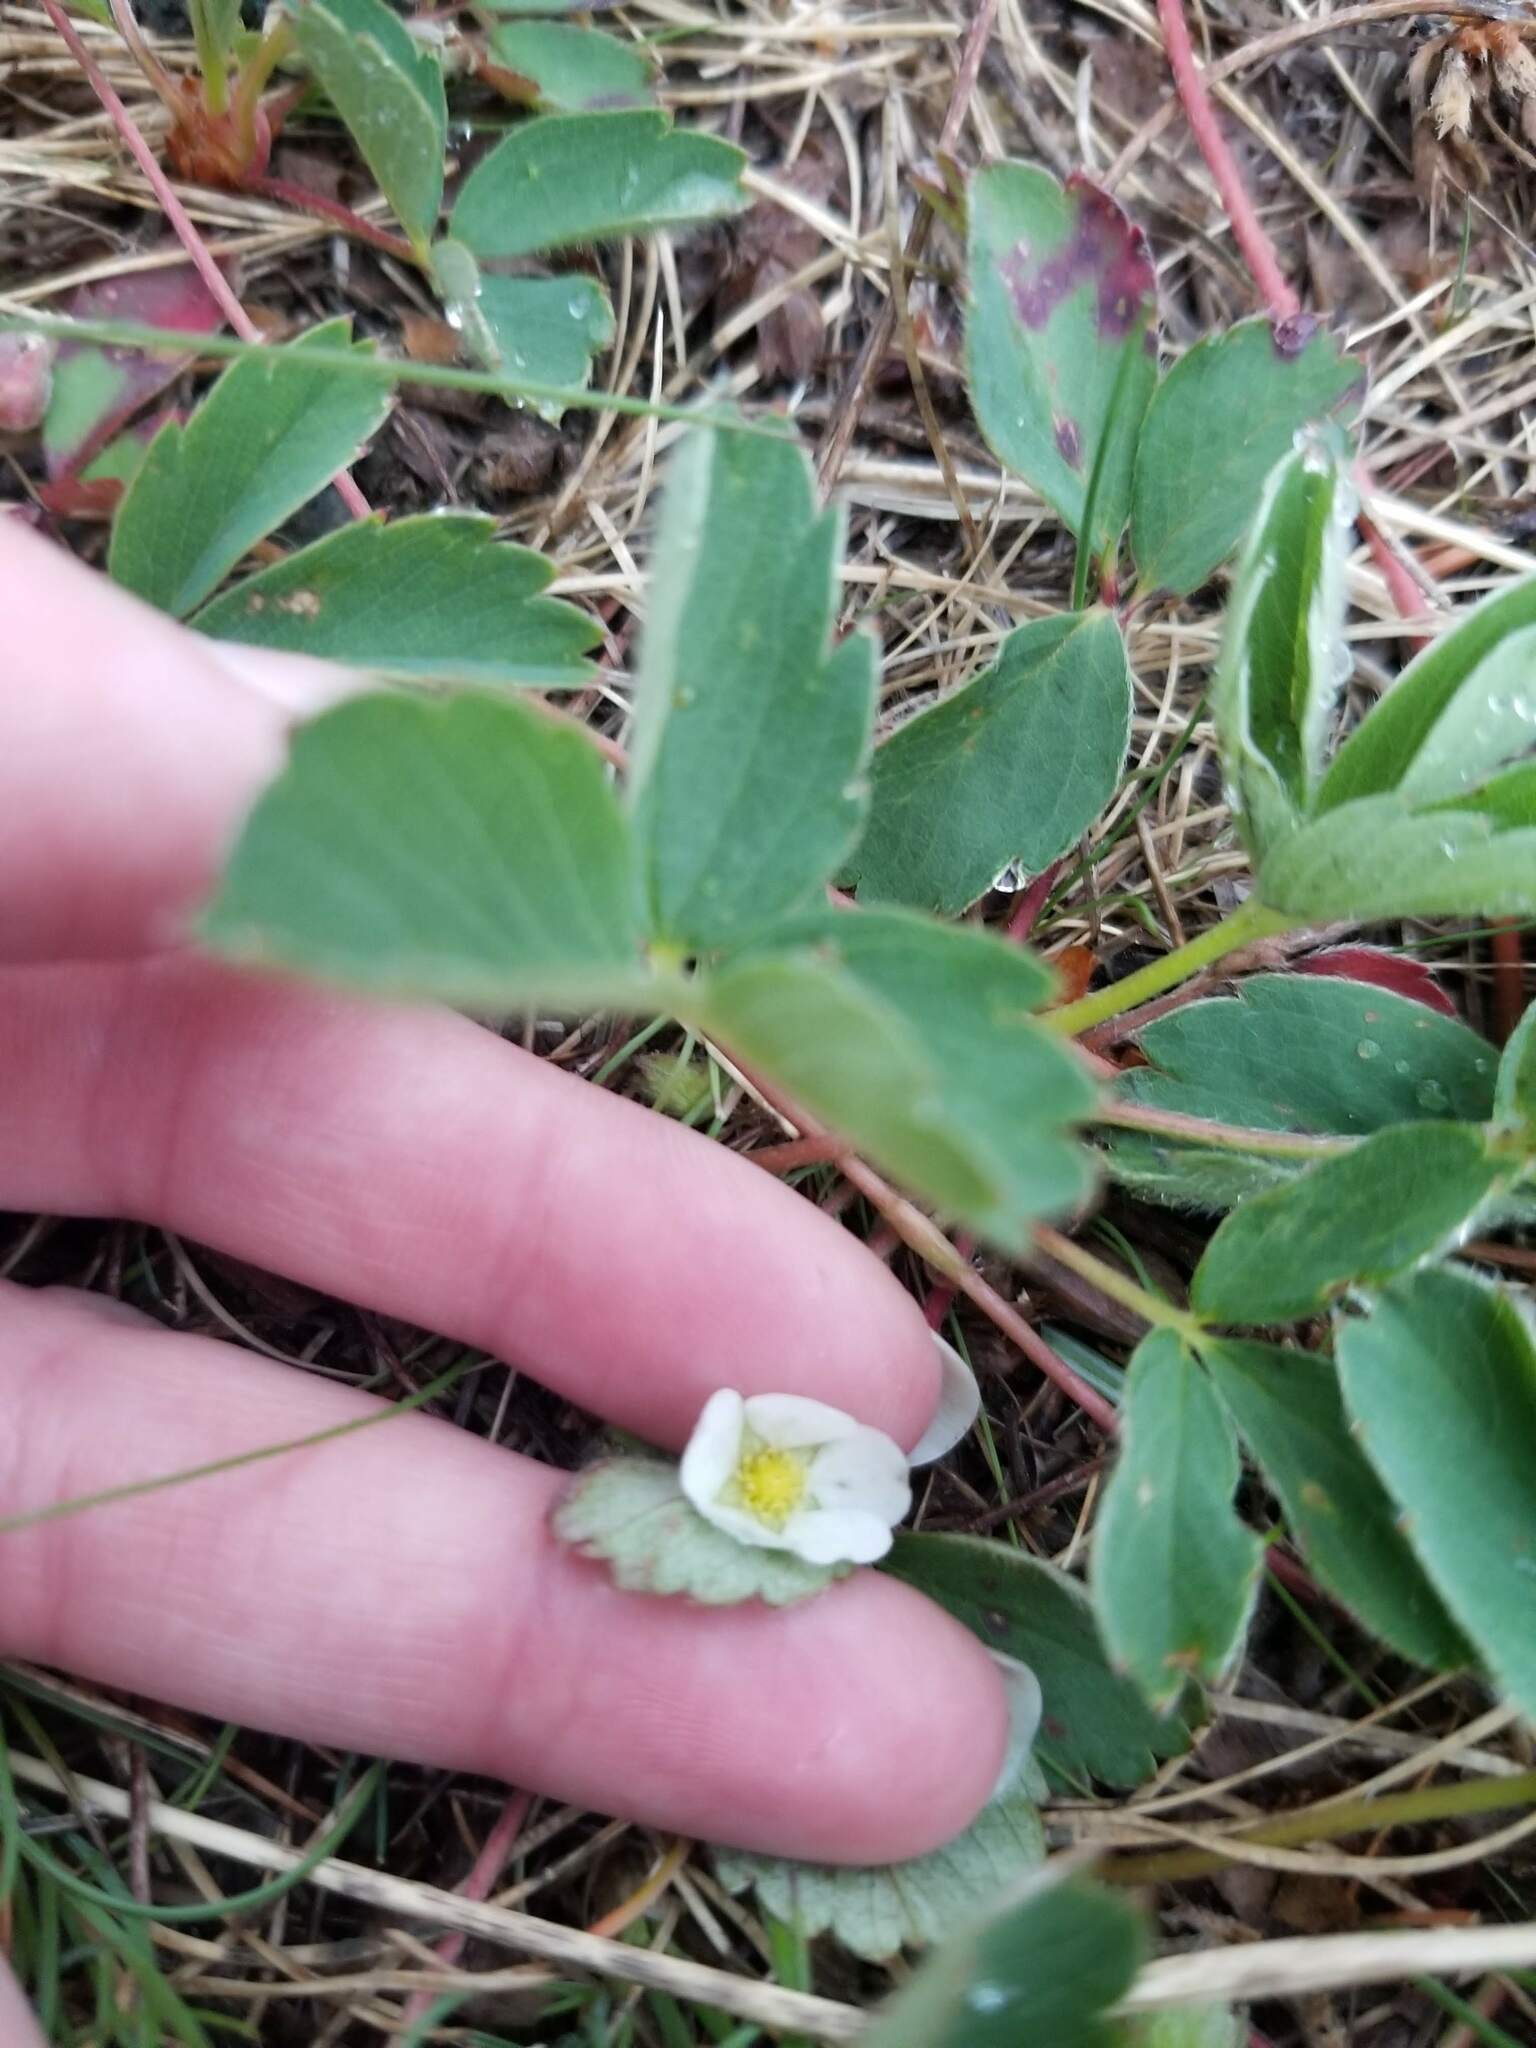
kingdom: Plantae
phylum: Tracheophyta
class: Magnoliopsida
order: Rosales
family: Rosaceae
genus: Fragaria
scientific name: Fragaria virginiana
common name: Thickleaved wild strawberry
